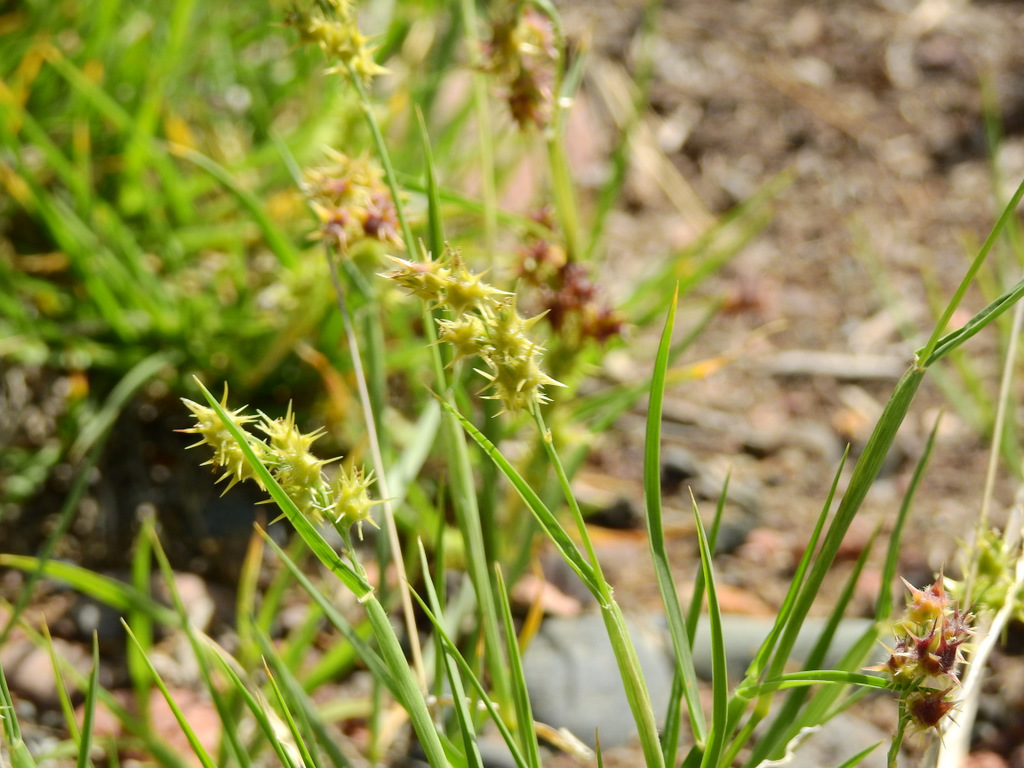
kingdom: Plantae
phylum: Tracheophyta
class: Liliopsida
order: Poales
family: Poaceae
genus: Cenchrus
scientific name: Cenchrus spinifex
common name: Coast sandbur
